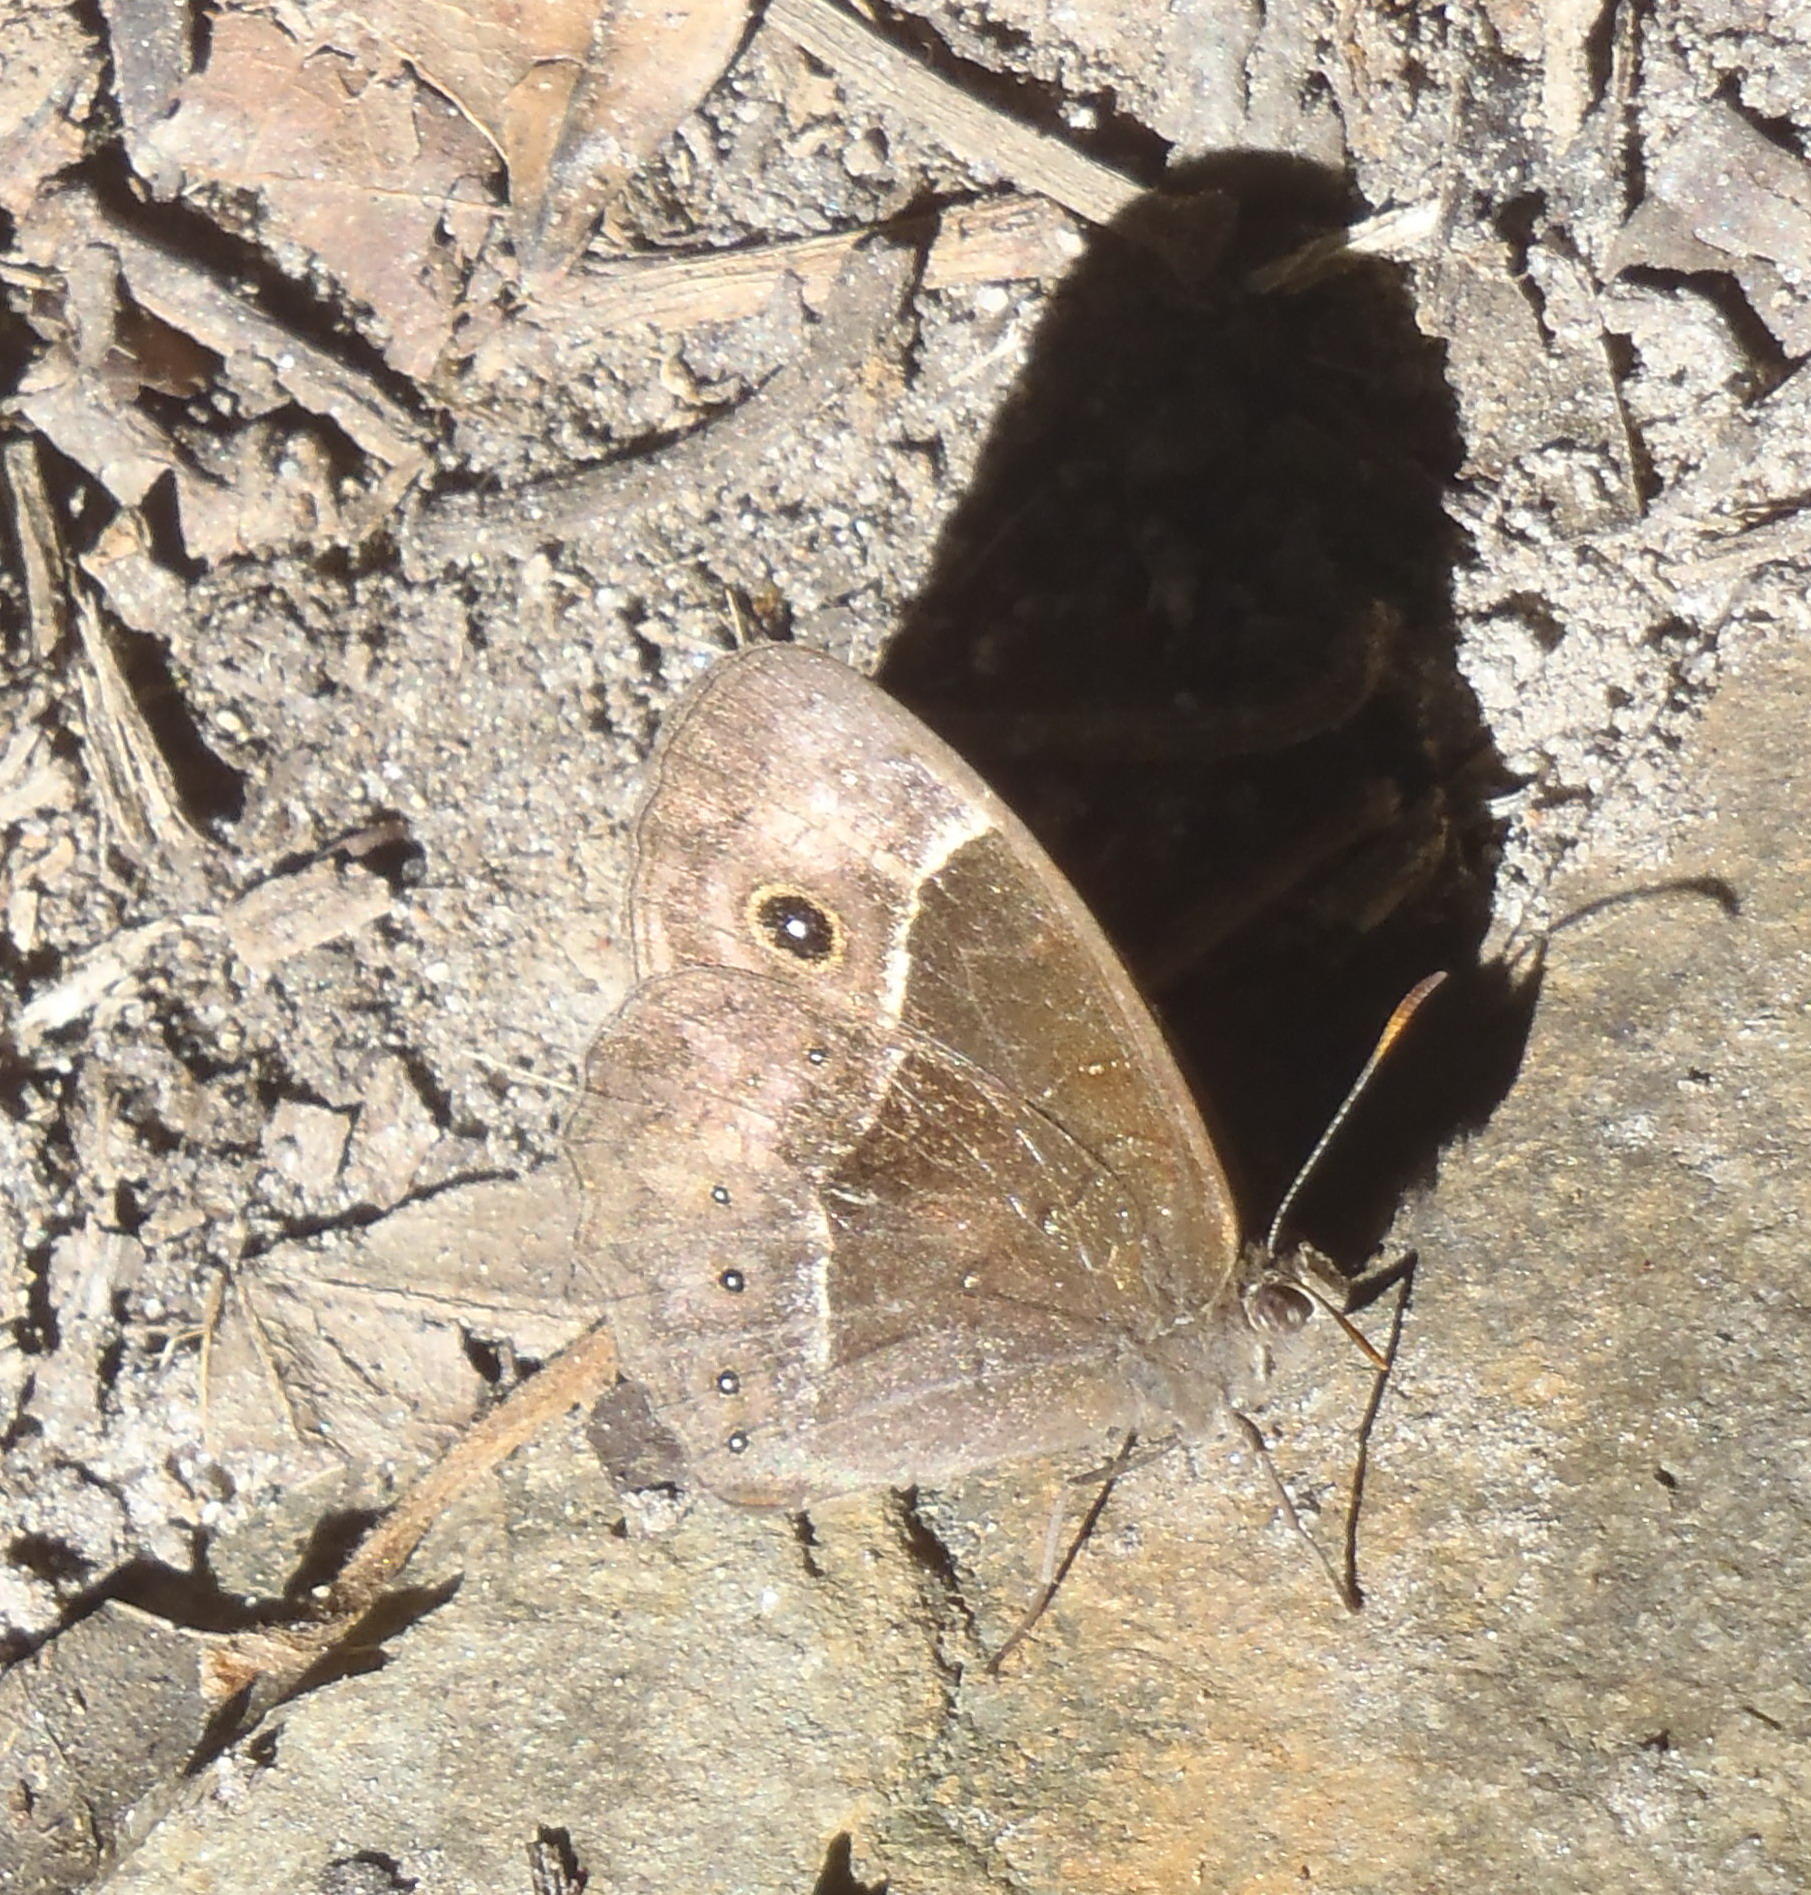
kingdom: Animalia
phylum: Arthropoda
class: Insecta
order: Lepidoptera
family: Nymphalidae
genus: Mycalesis
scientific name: Mycalesis rhacotis
